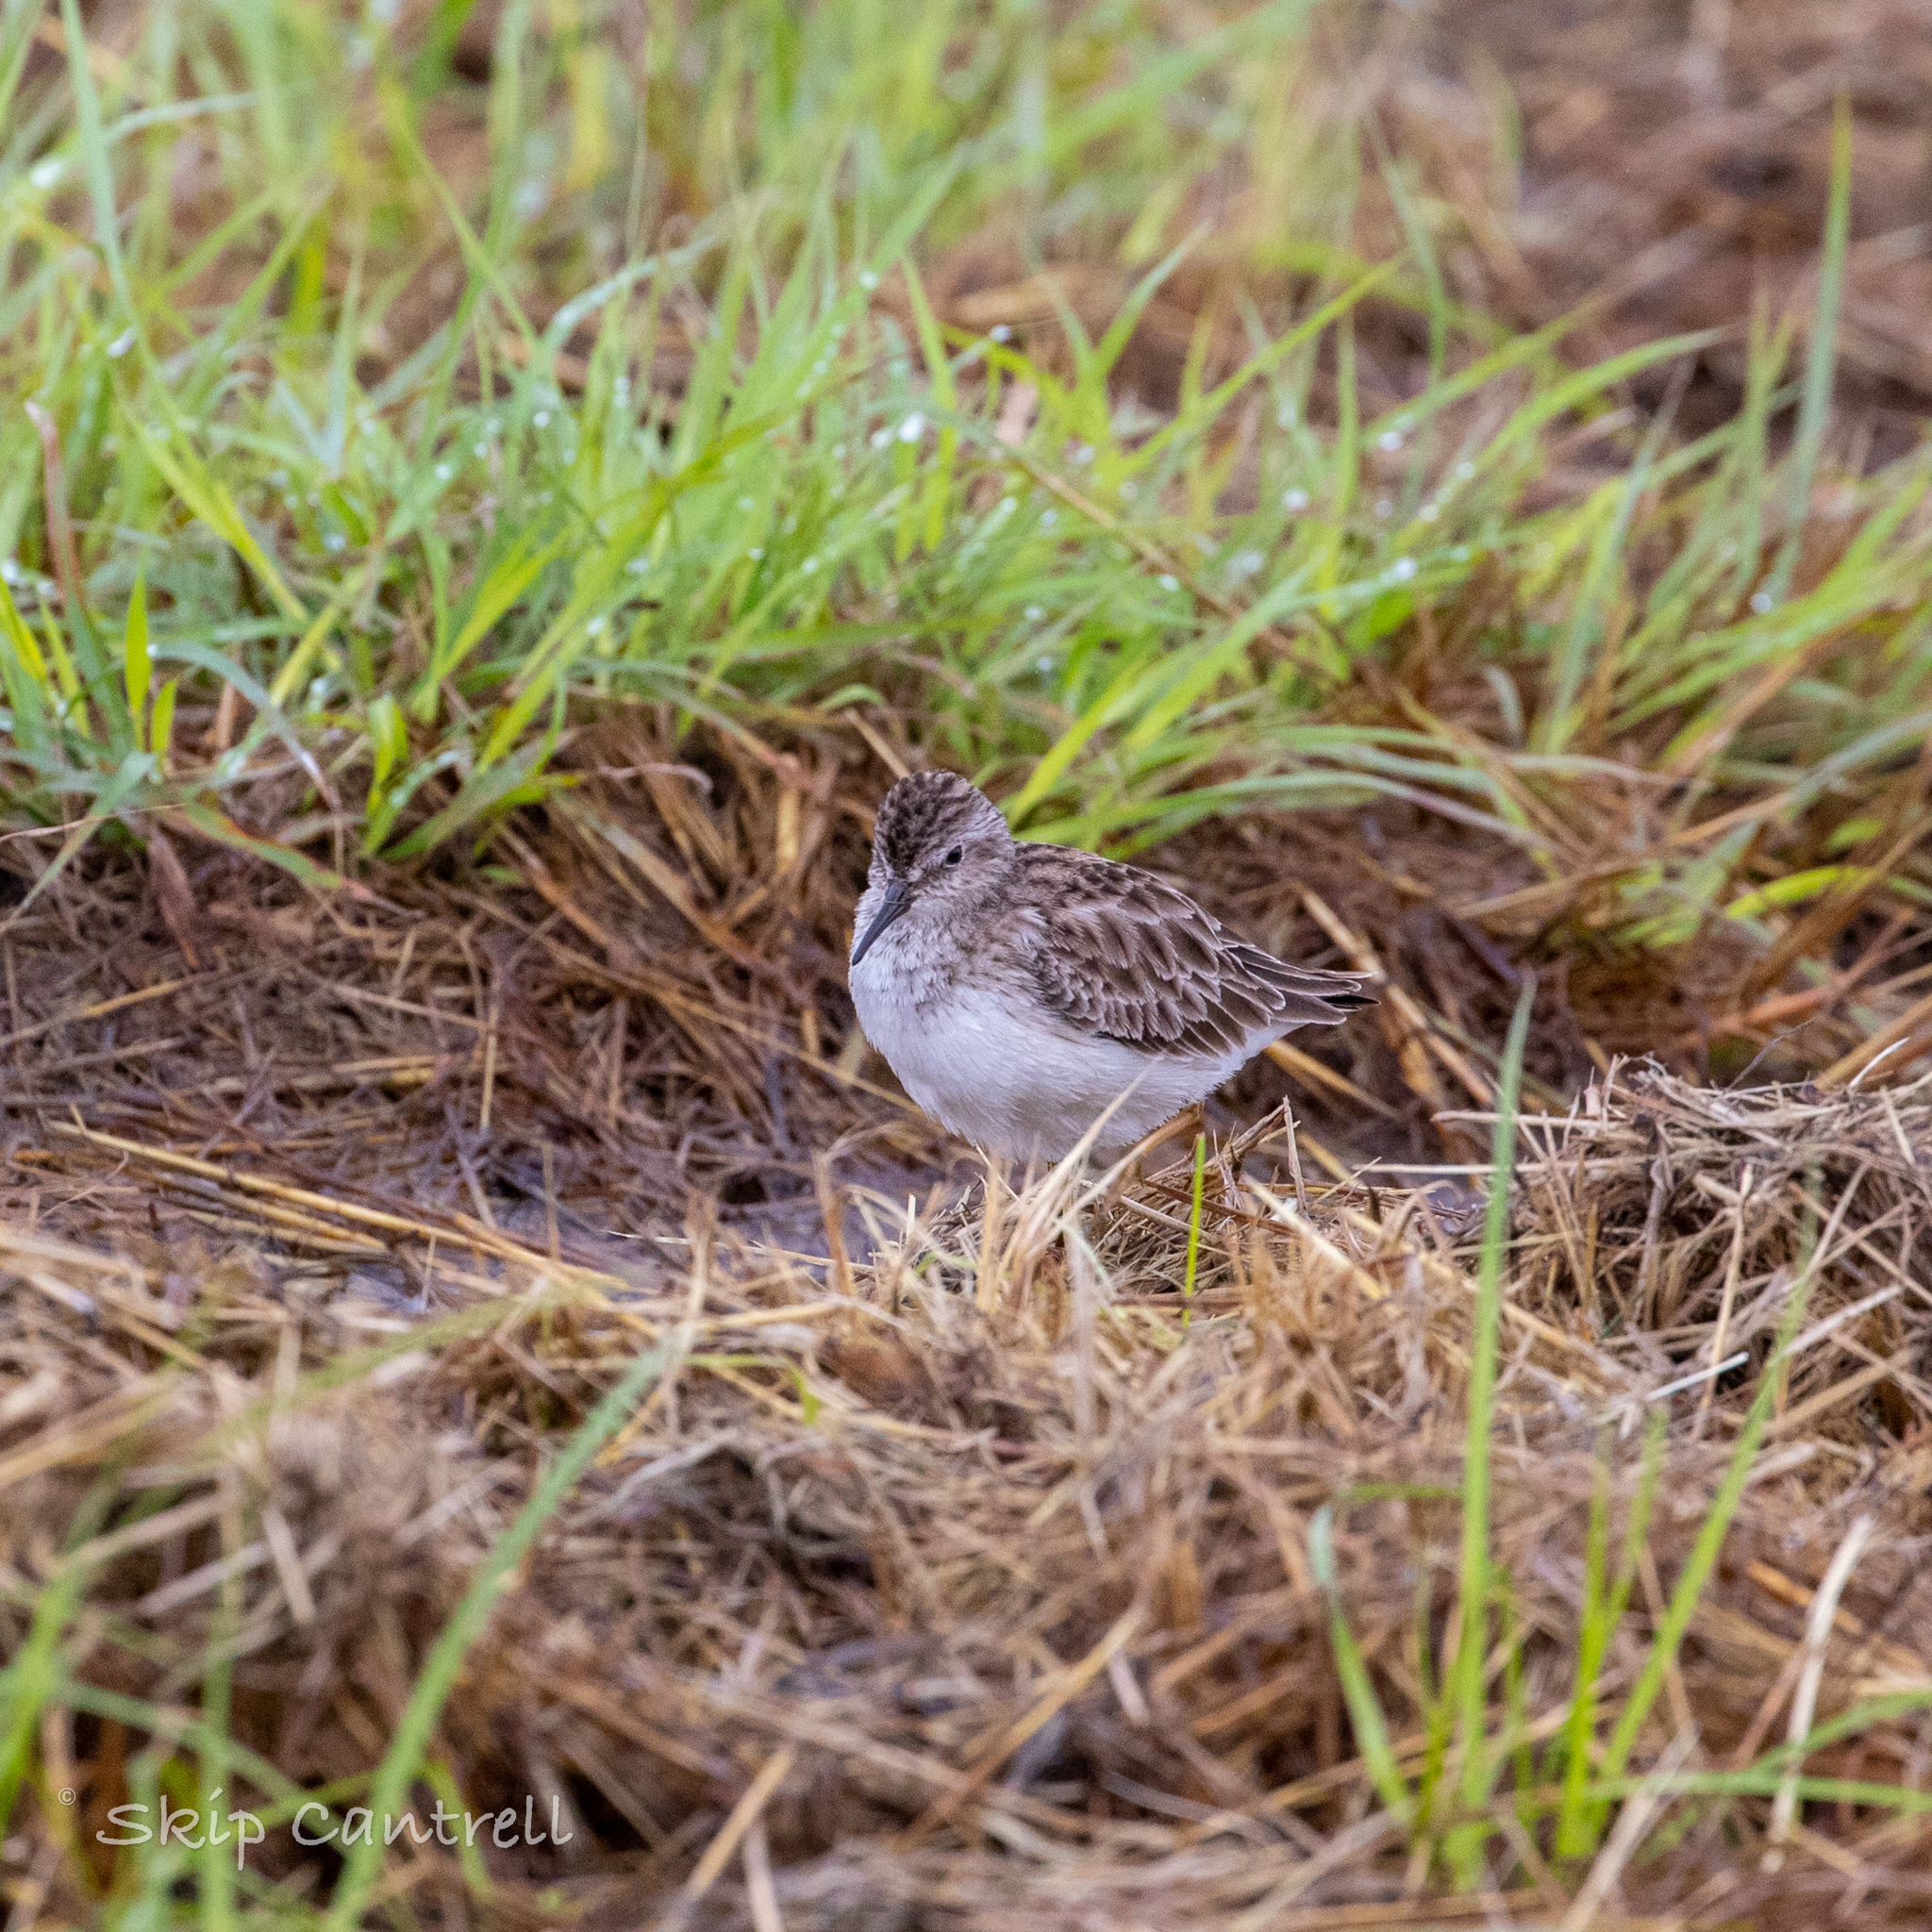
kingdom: Animalia
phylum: Chordata
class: Aves
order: Charadriiformes
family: Scolopacidae
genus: Calidris
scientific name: Calidris minutilla
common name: Least sandpiper
